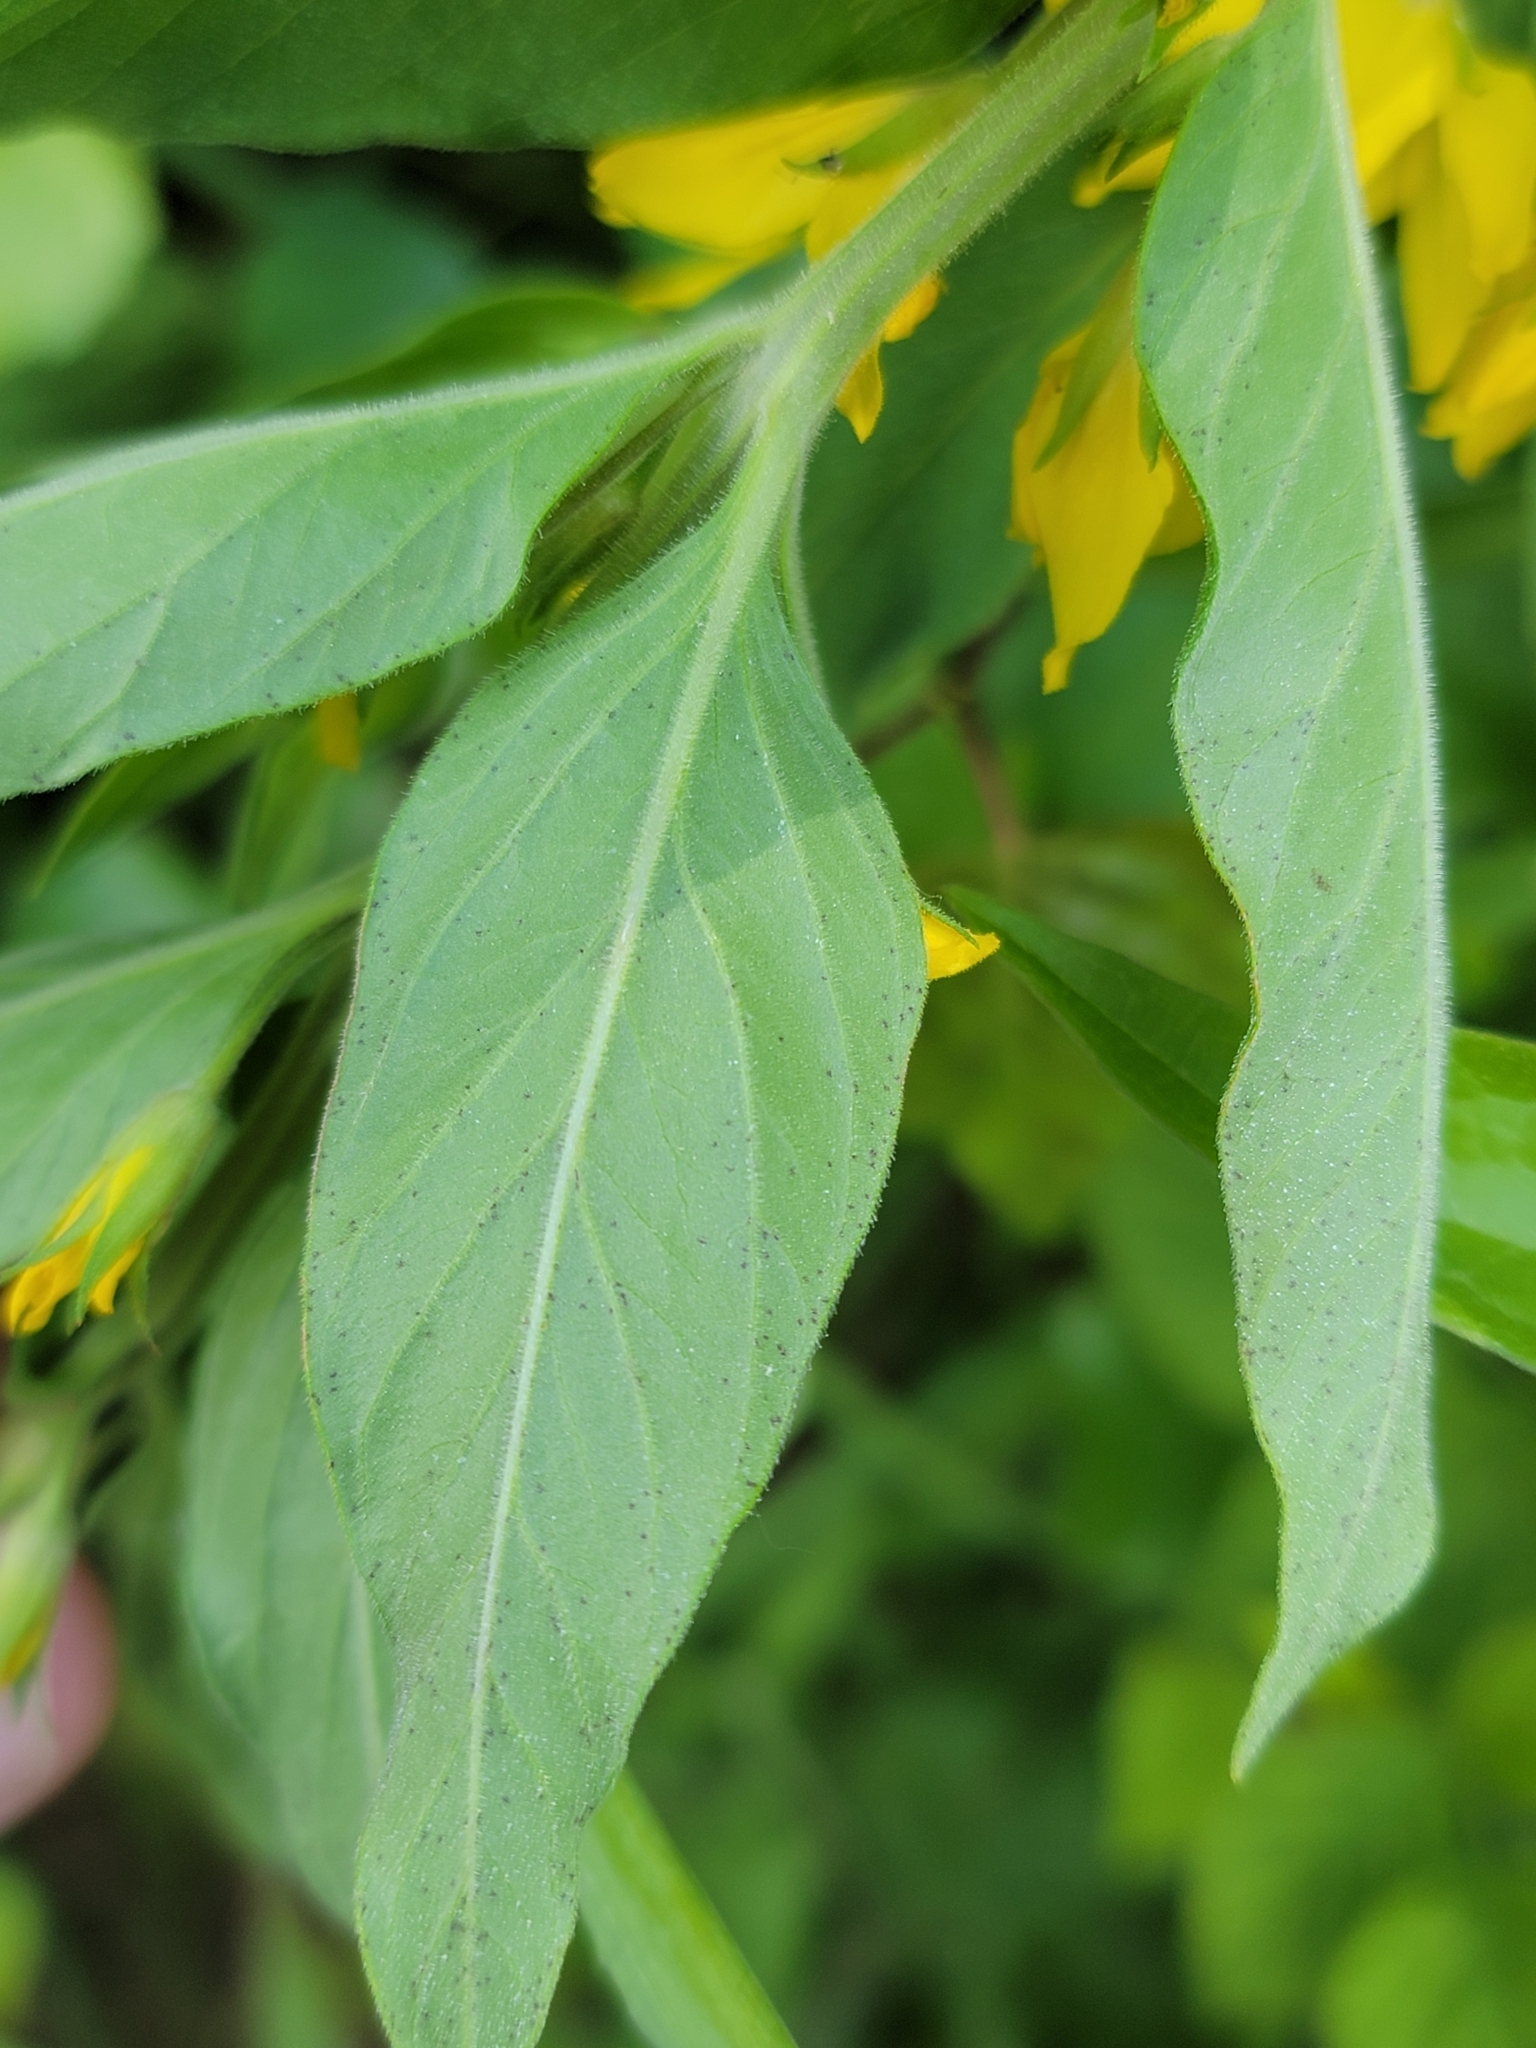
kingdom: Plantae
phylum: Tracheophyta
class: Magnoliopsida
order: Ericales
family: Primulaceae
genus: Lysimachia
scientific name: Lysimachia punctata
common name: Dotted loosestrife
